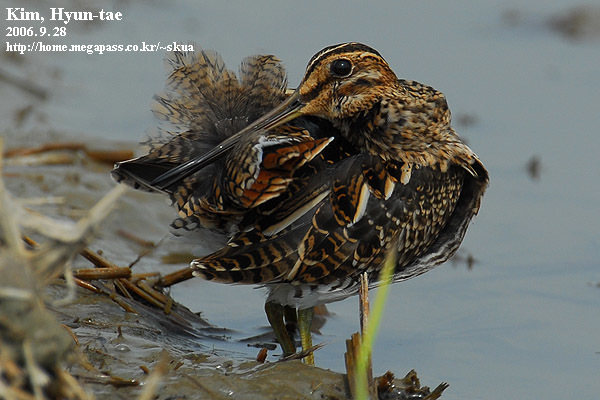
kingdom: Animalia
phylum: Chordata
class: Aves
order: Charadriiformes
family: Scolopacidae
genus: Gallinago
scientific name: Gallinago gallinago
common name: Common snipe
